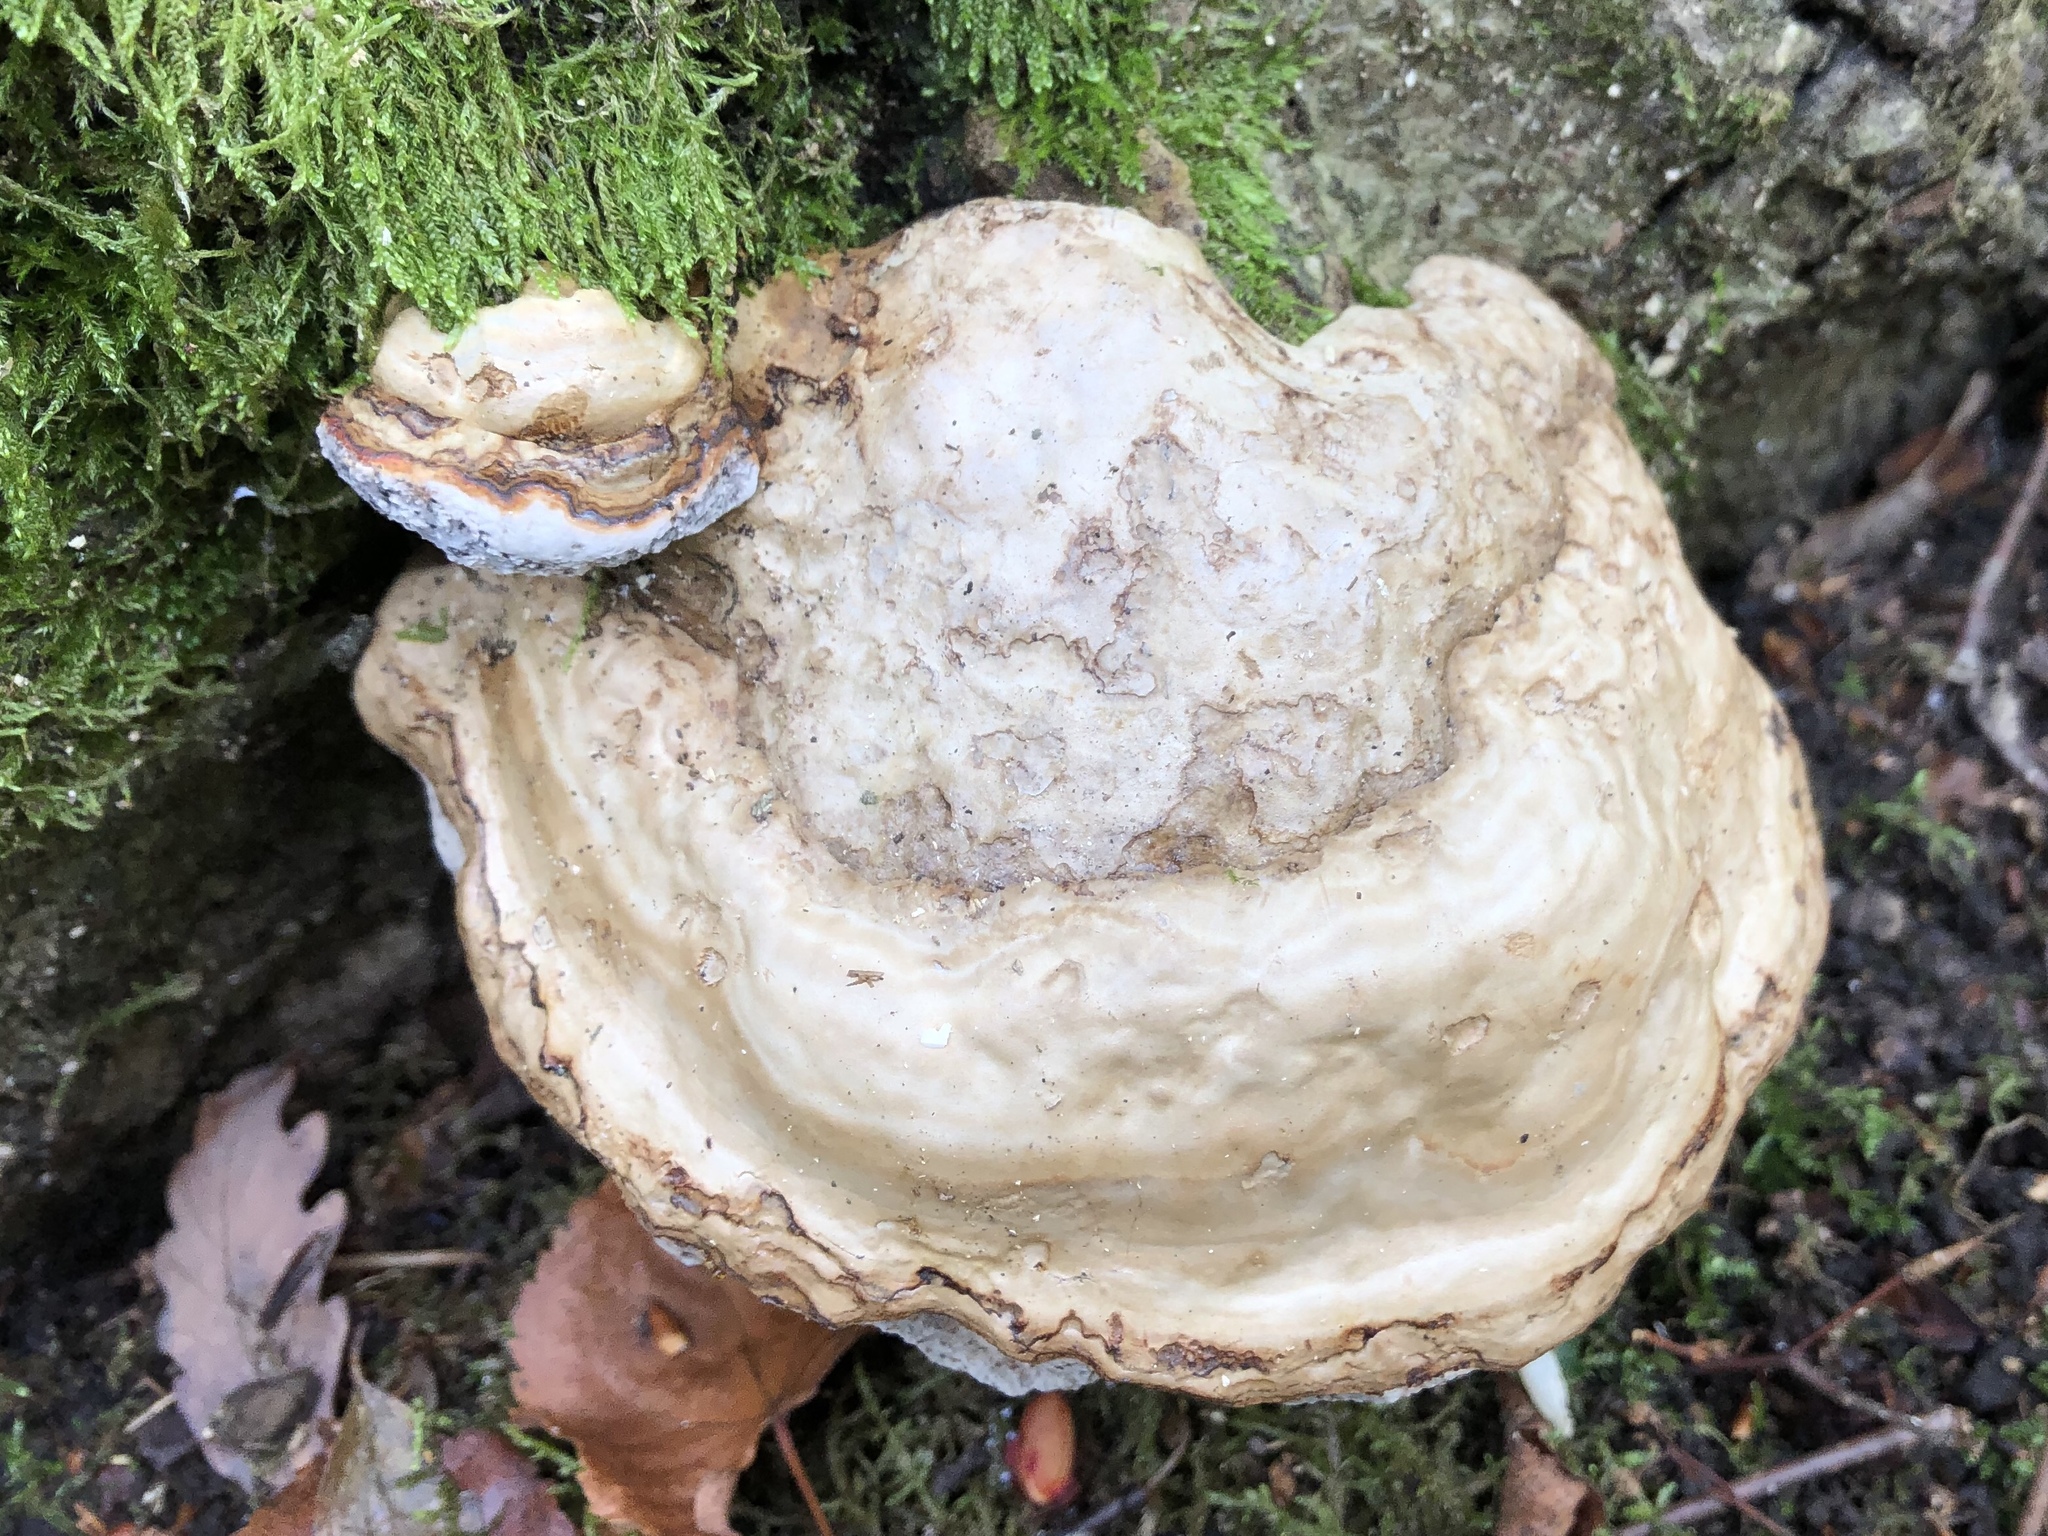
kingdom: Fungi
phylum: Basidiomycota
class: Agaricomycetes
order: Polyporales
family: Polyporaceae
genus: Fomes
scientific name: Fomes fomentarius
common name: Hoof fungus
